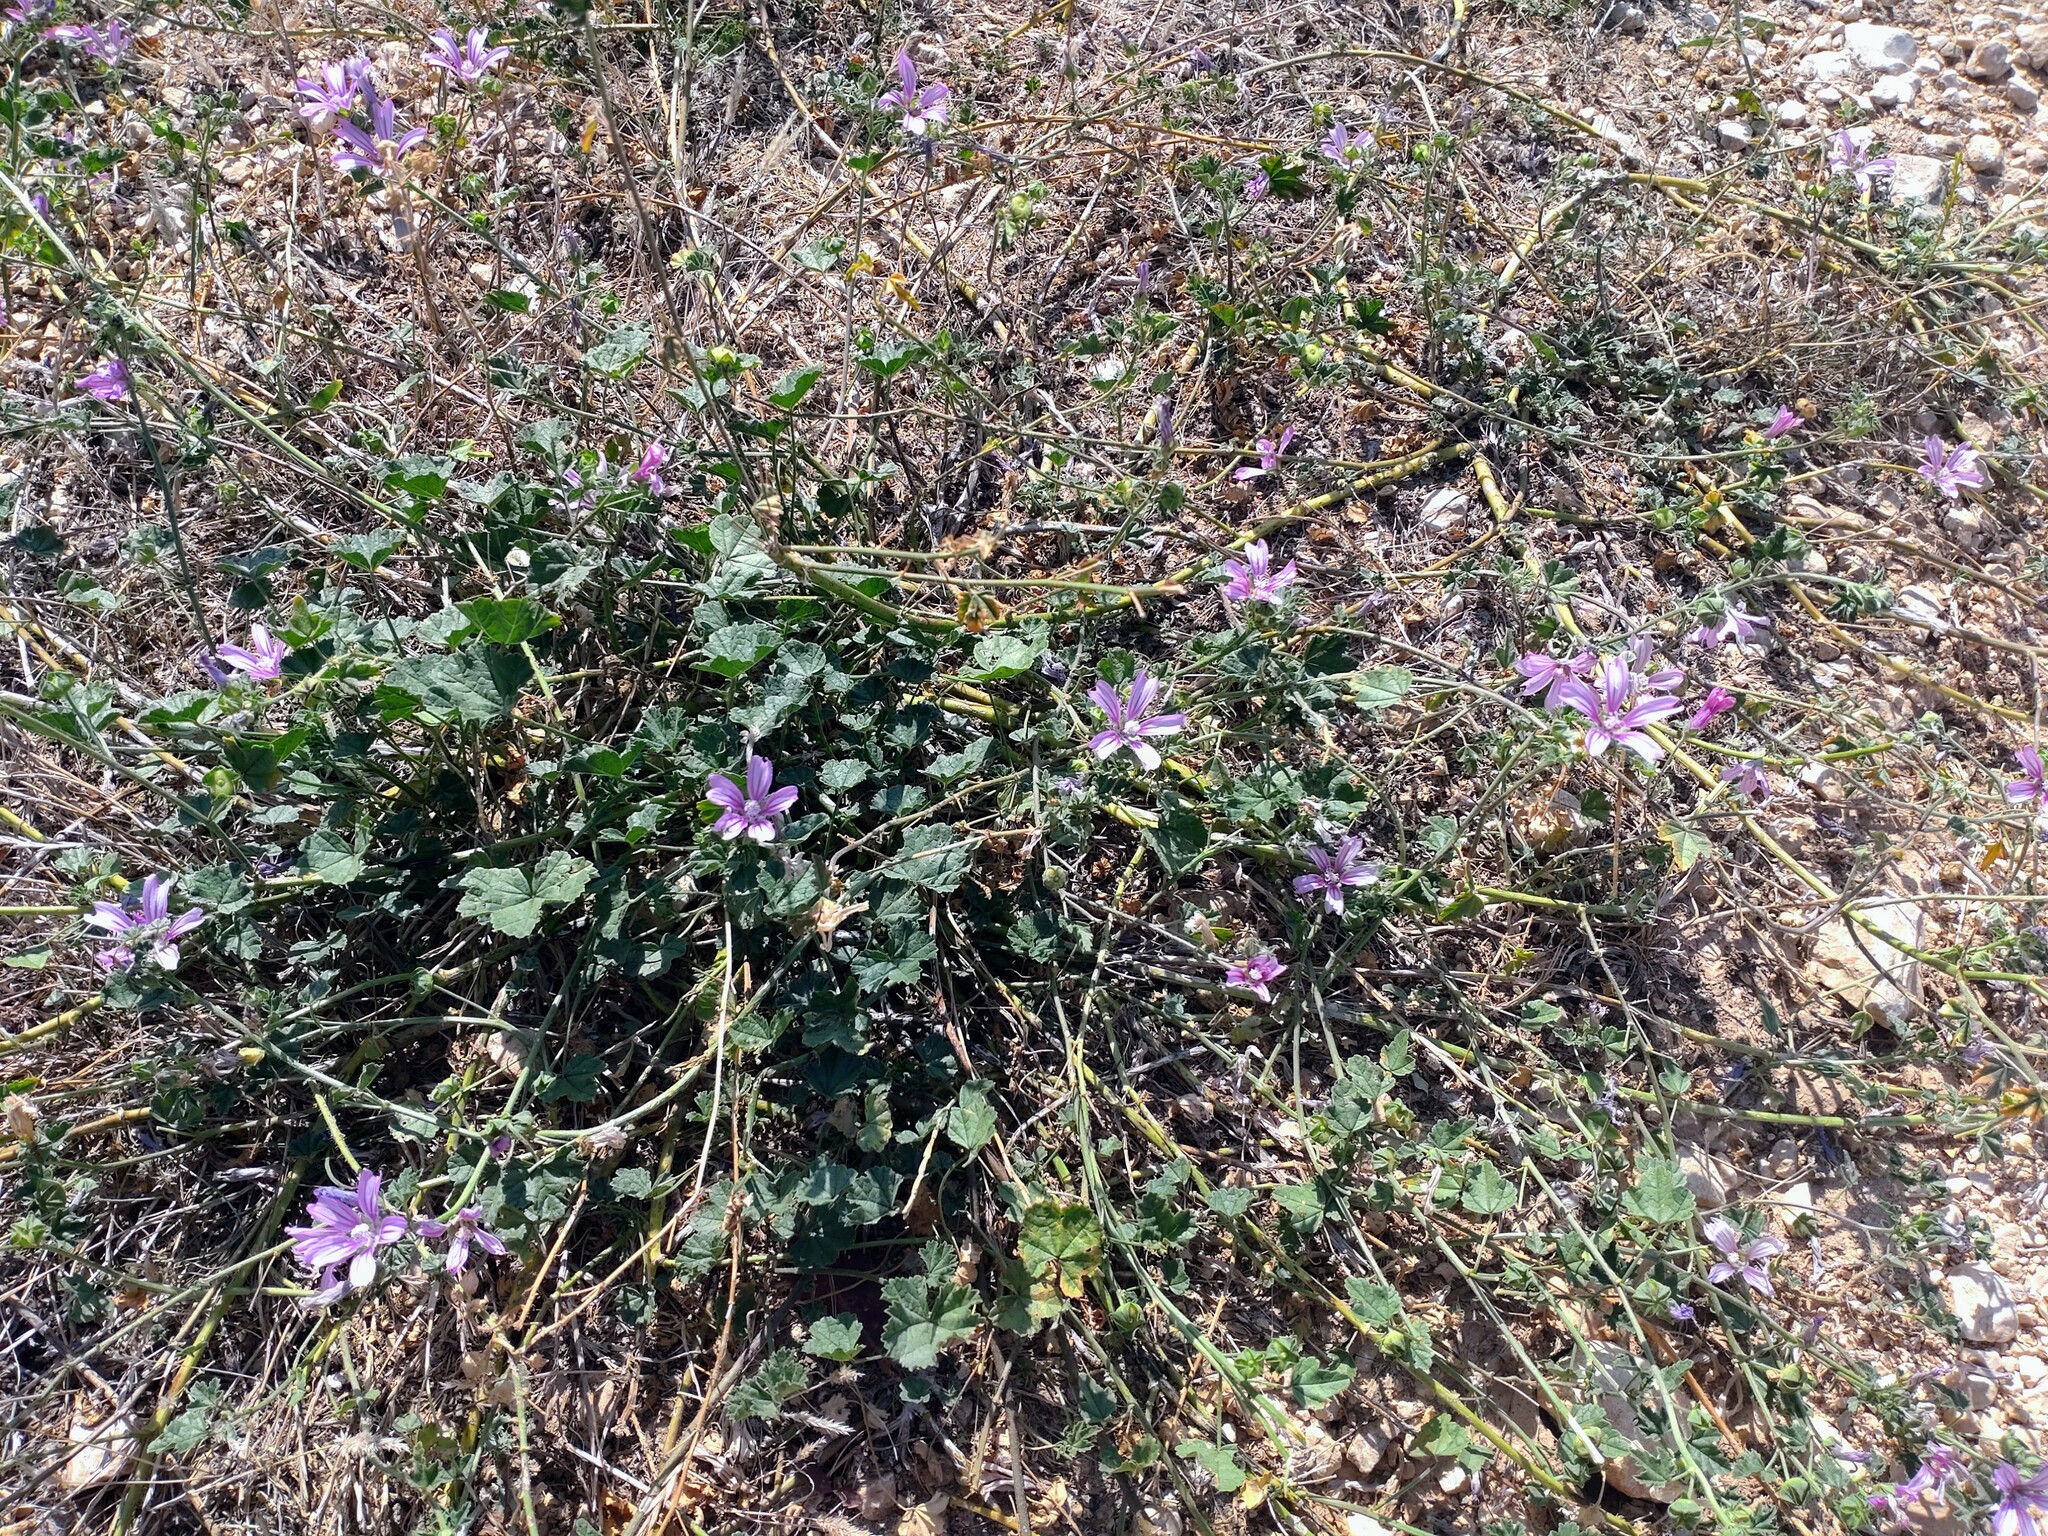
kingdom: Plantae
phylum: Tracheophyta
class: Magnoliopsida
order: Malvales
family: Malvaceae
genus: Malva
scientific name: Malva sylvestris
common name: Common mallow
